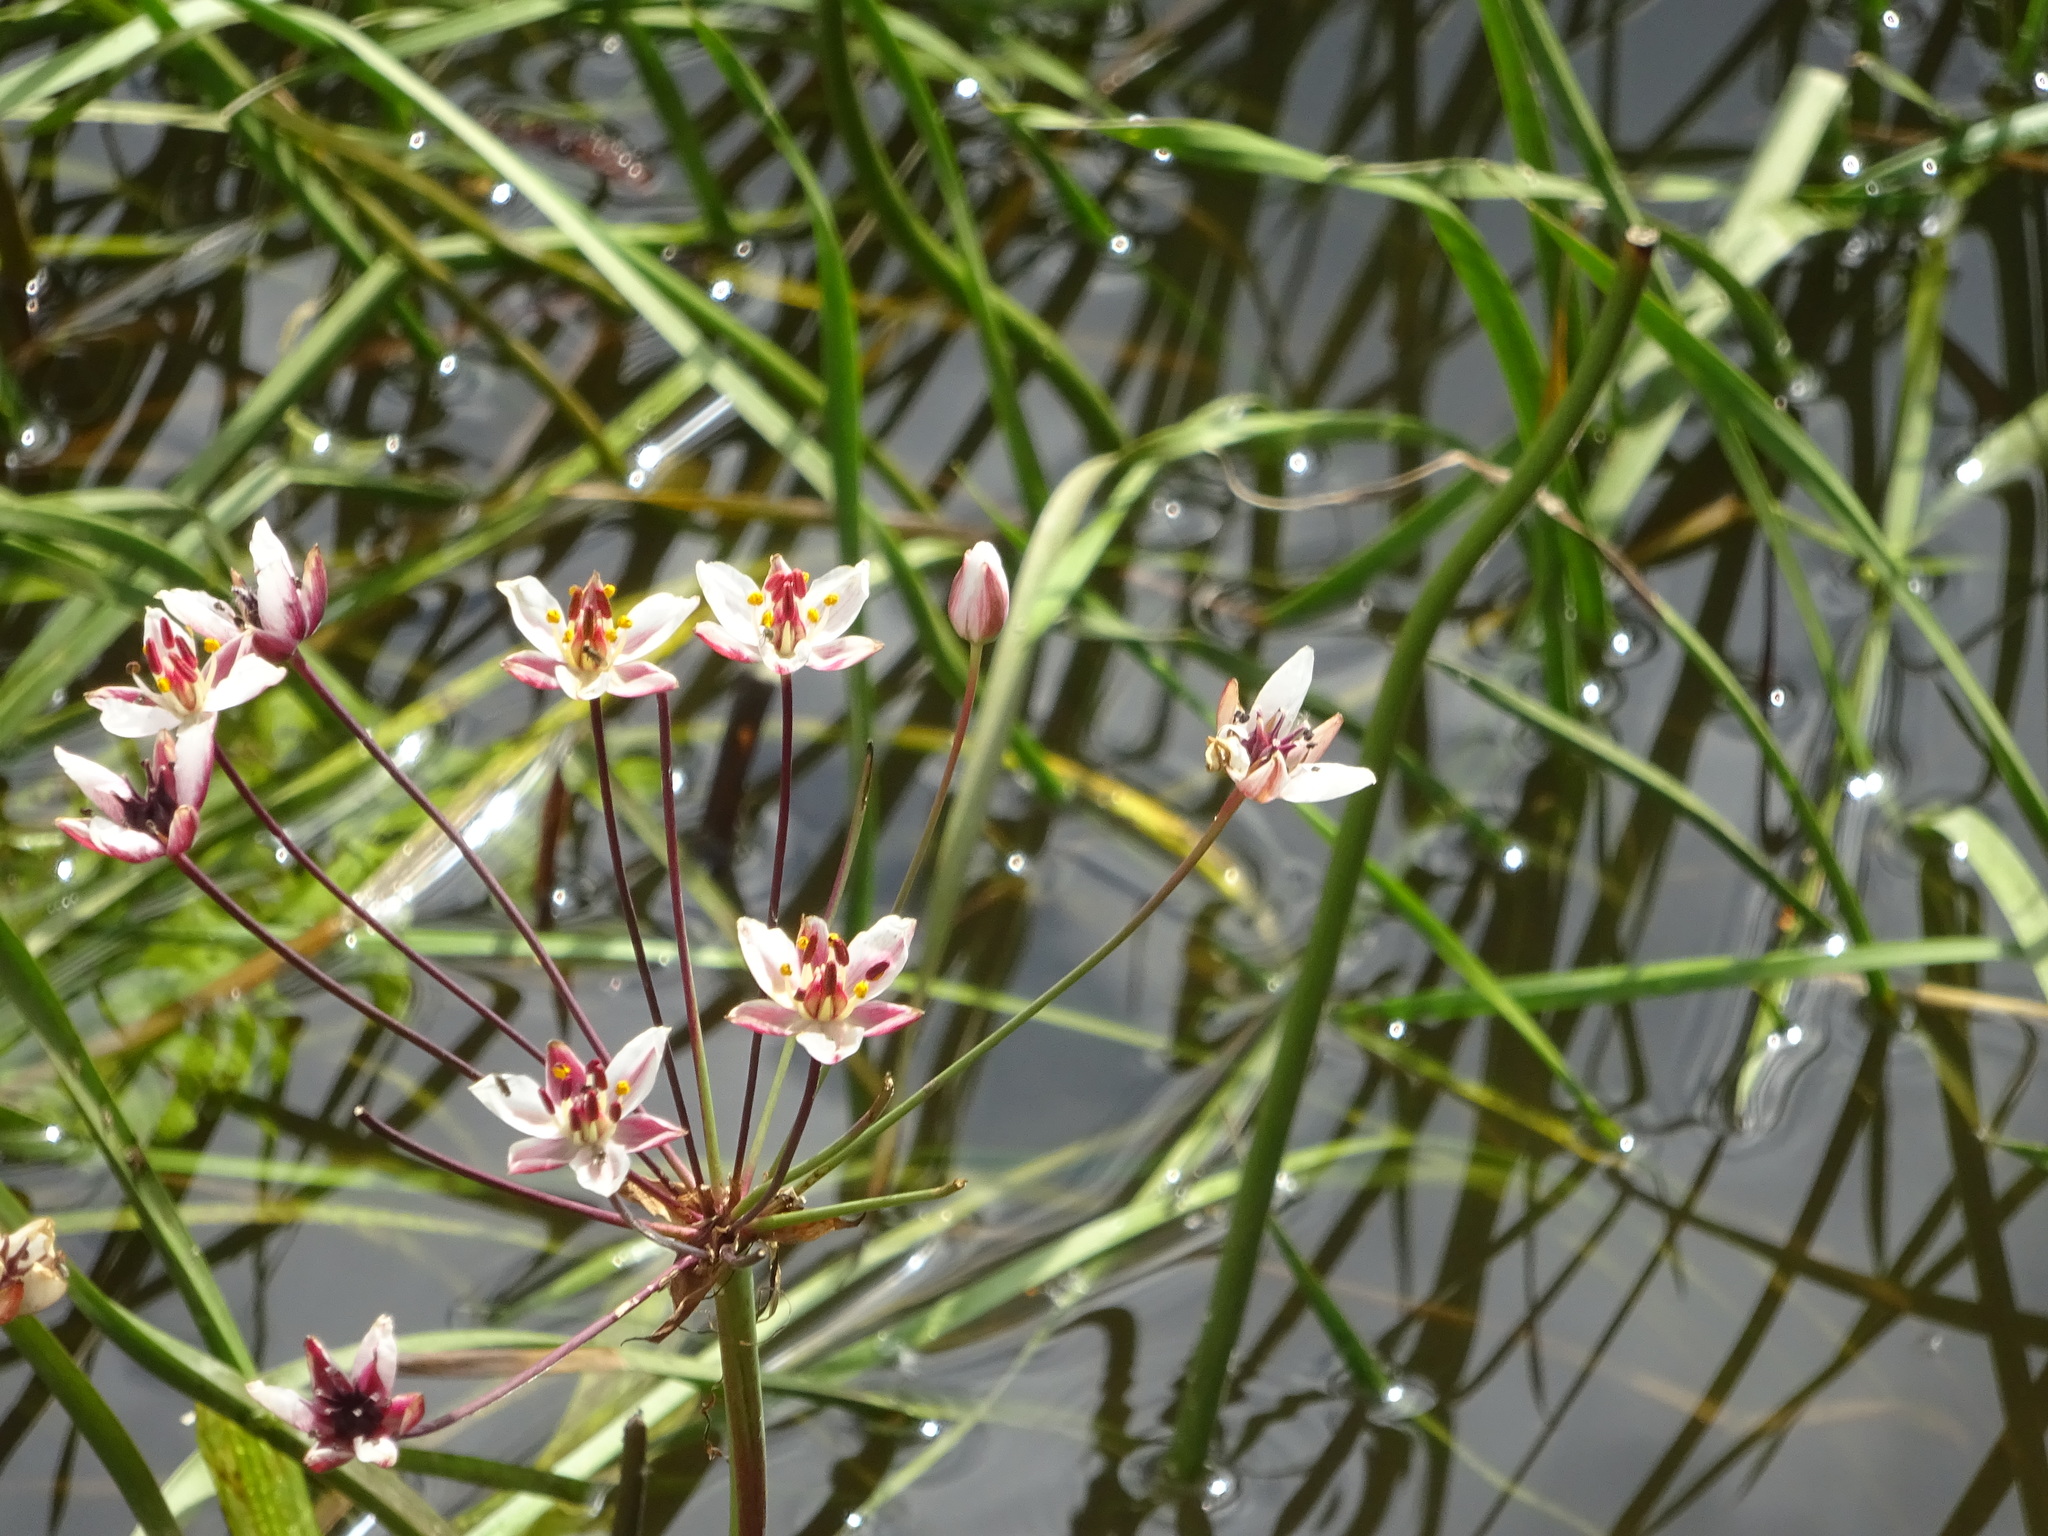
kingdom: Plantae
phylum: Tracheophyta
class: Liliopsida
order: Alismatales
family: Butomaceae
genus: Butomus
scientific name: Butomus umbellatus
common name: Flowering-rush
